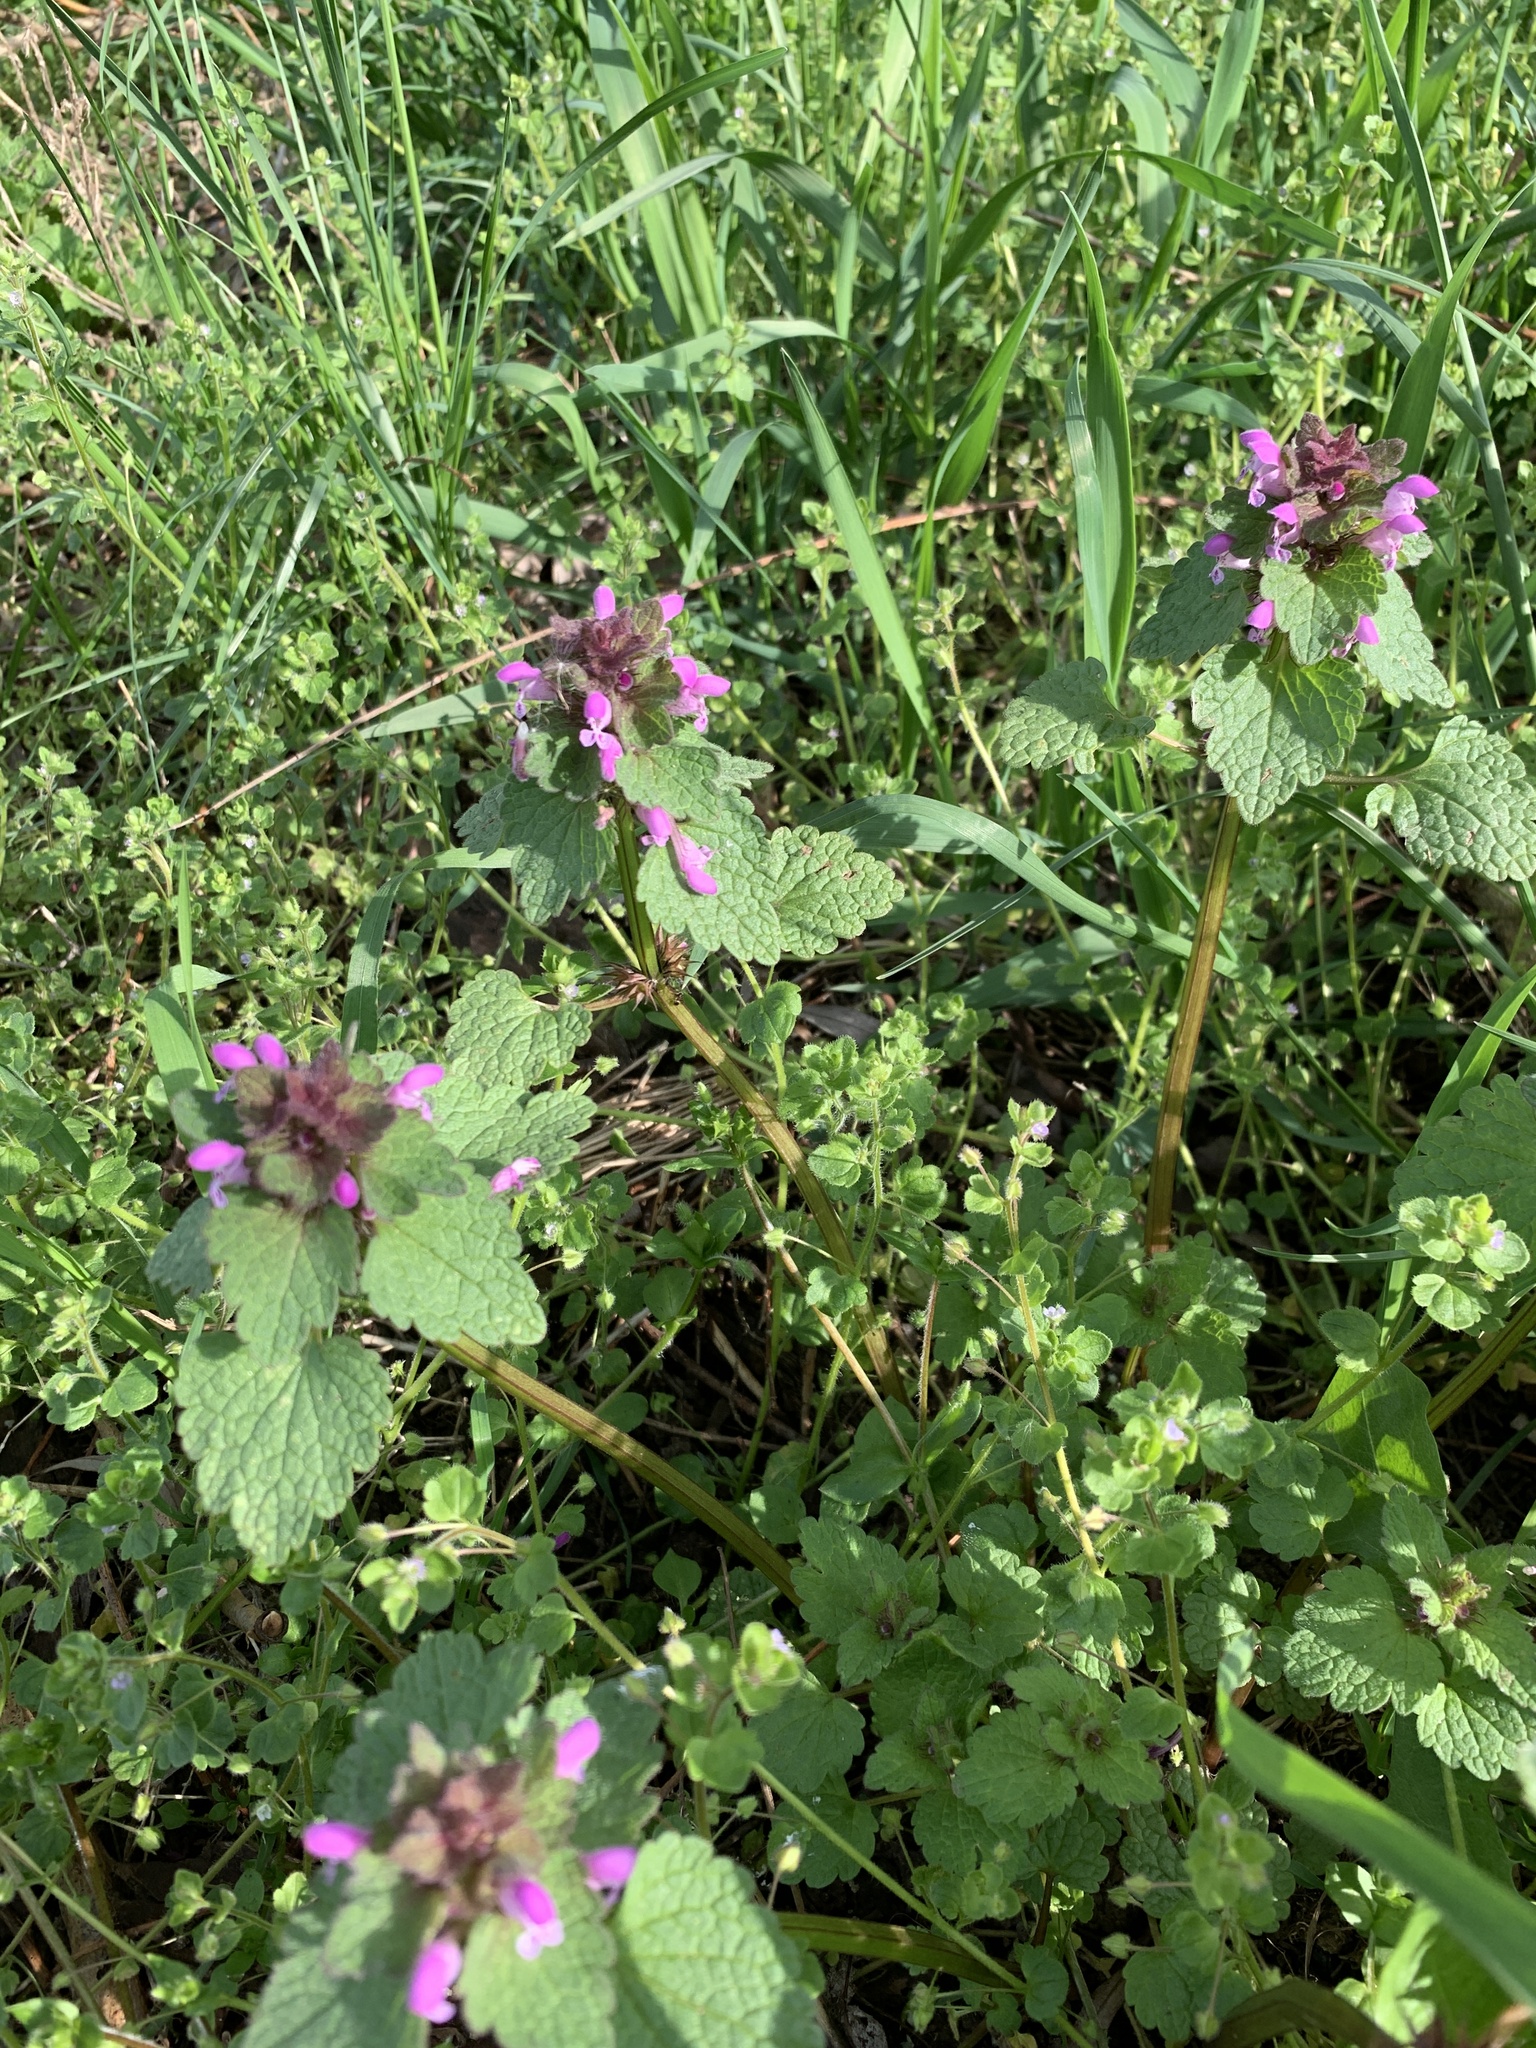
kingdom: Plantae
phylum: Tracheophyta
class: Magnoliopsida
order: Lamiales
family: Lamiaceae
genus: Lamium
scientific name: Lamium purpureum
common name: Red dead-nettle
